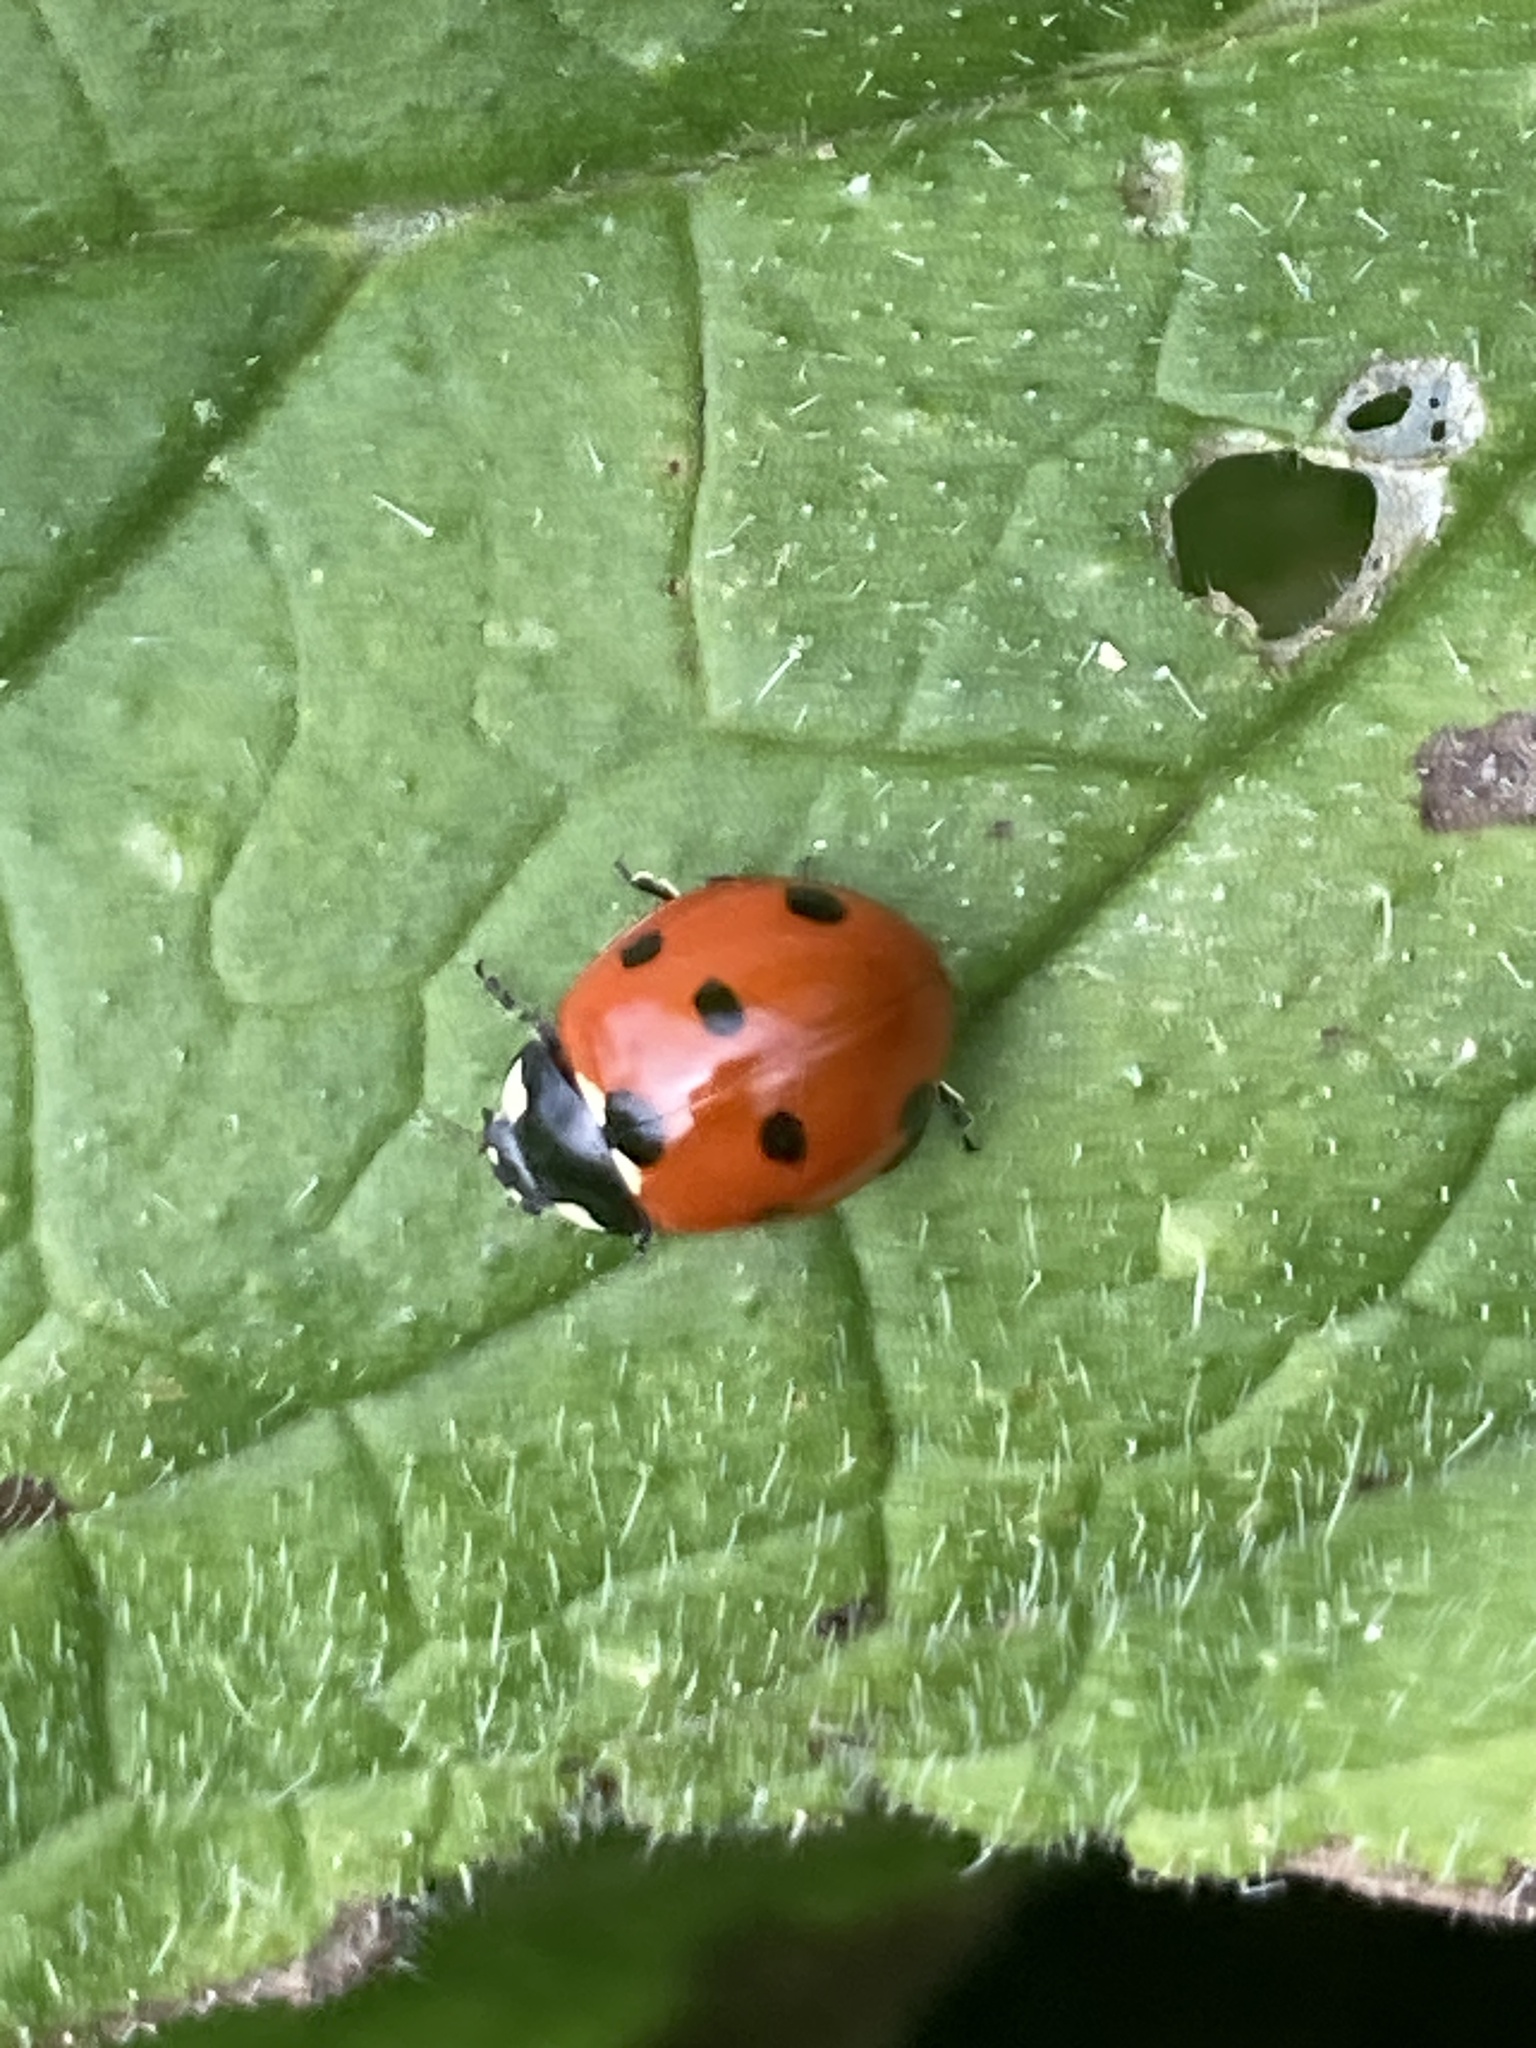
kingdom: Animalia
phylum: Arthropoda
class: Insecta
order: Coleoptera
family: Coccinellidae
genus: Coccinella
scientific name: Coccinella septempunctata
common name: Sevenspotted lady beetle
